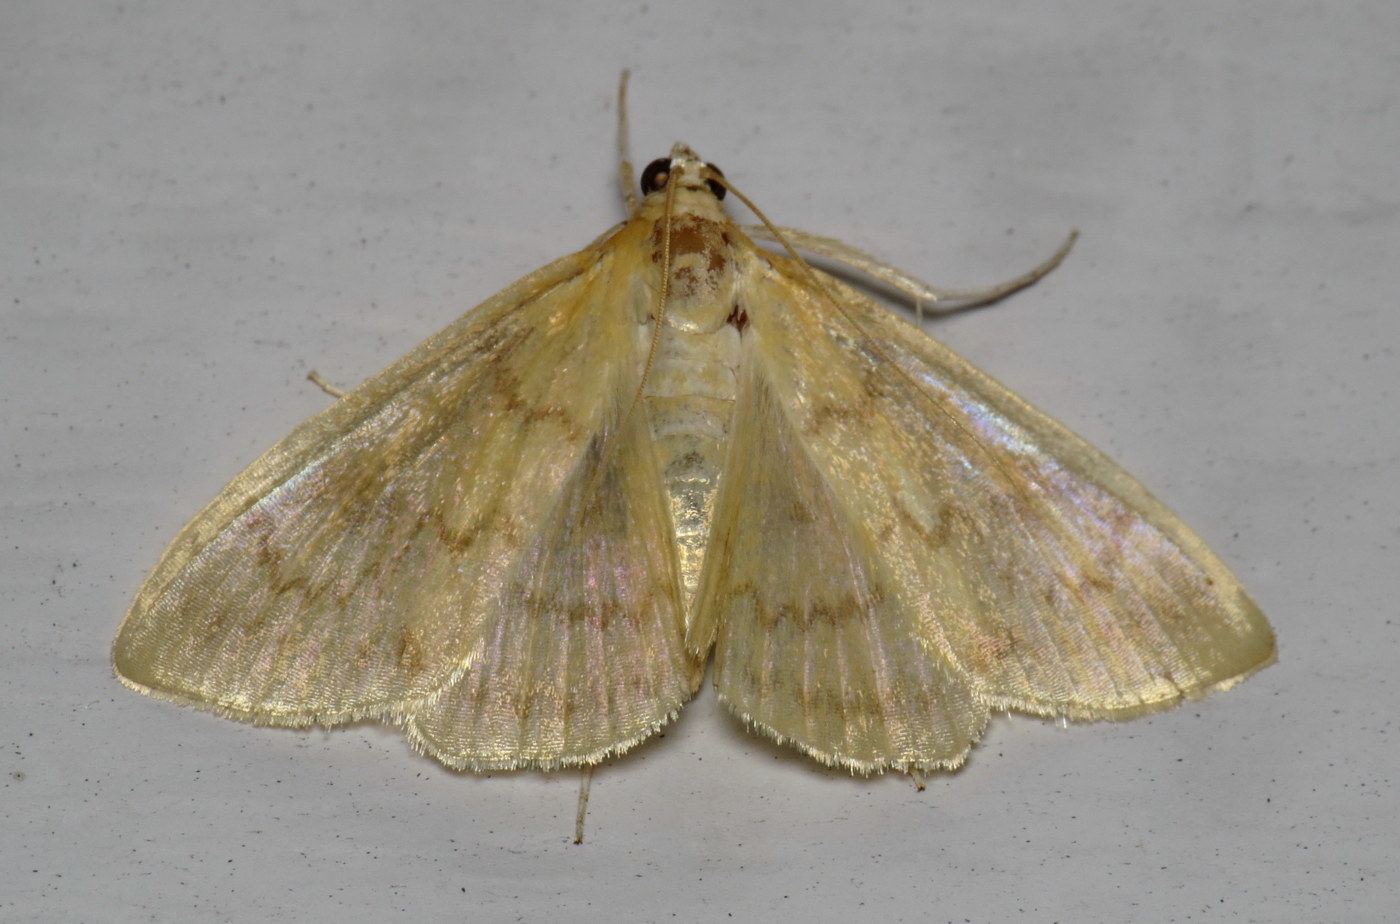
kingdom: Animalia
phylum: Arthropoda
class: Insecta
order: Lepidoptera
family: Crambidae
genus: Hahncappsia
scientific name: Hahncappsia pergilvalis
